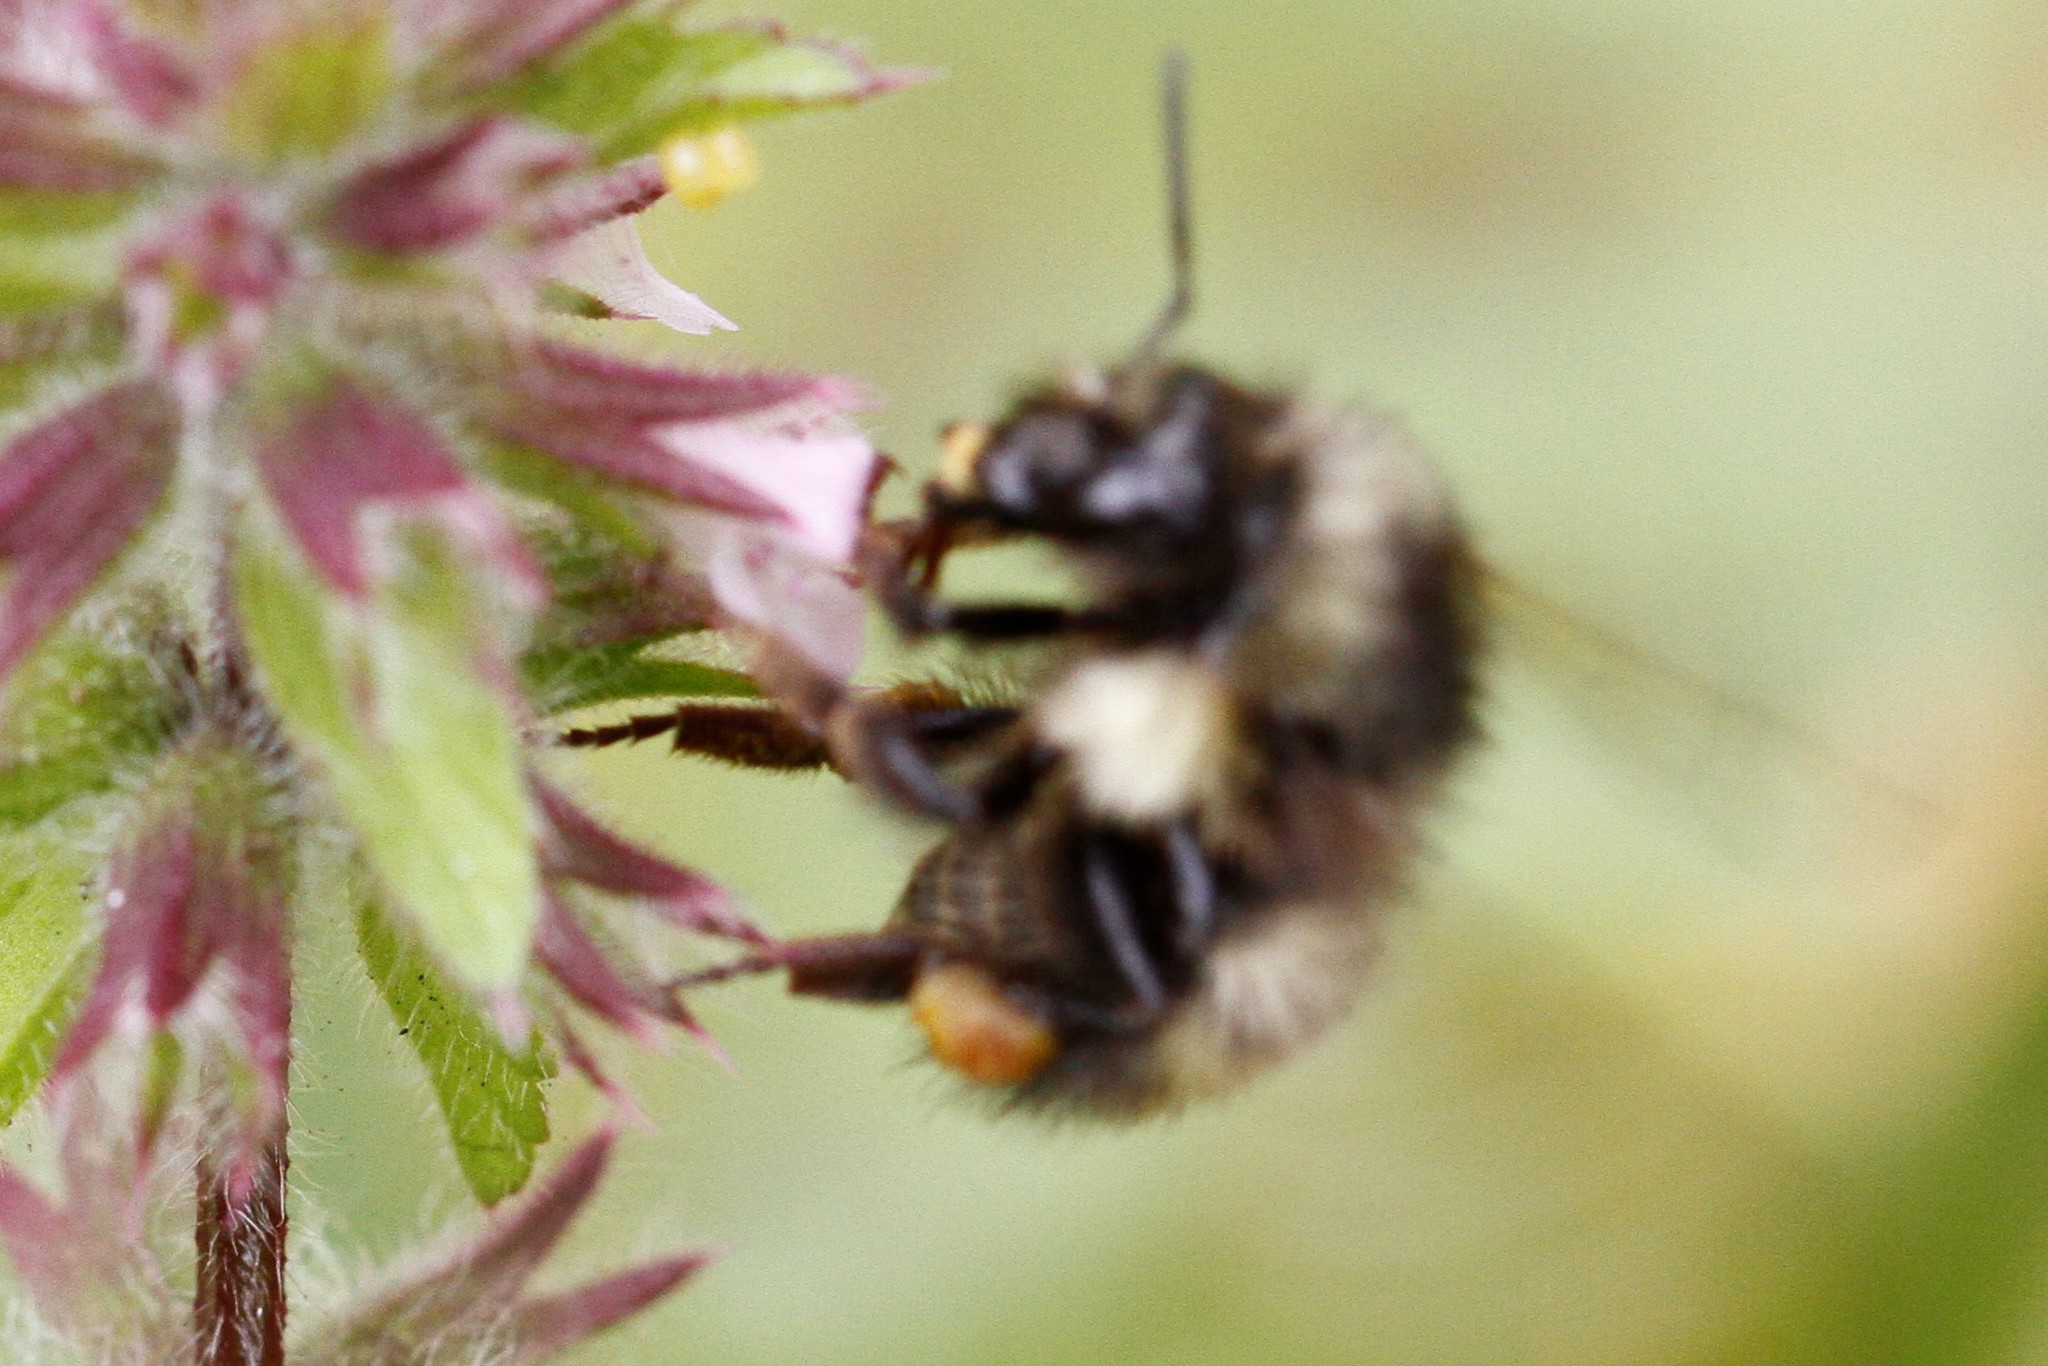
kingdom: Animalia
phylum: Arthropoda
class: Insecta
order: Hymenoptera
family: Apidae
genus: Bombus
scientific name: Bombus flavifrons
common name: Yellow head bumble bee
